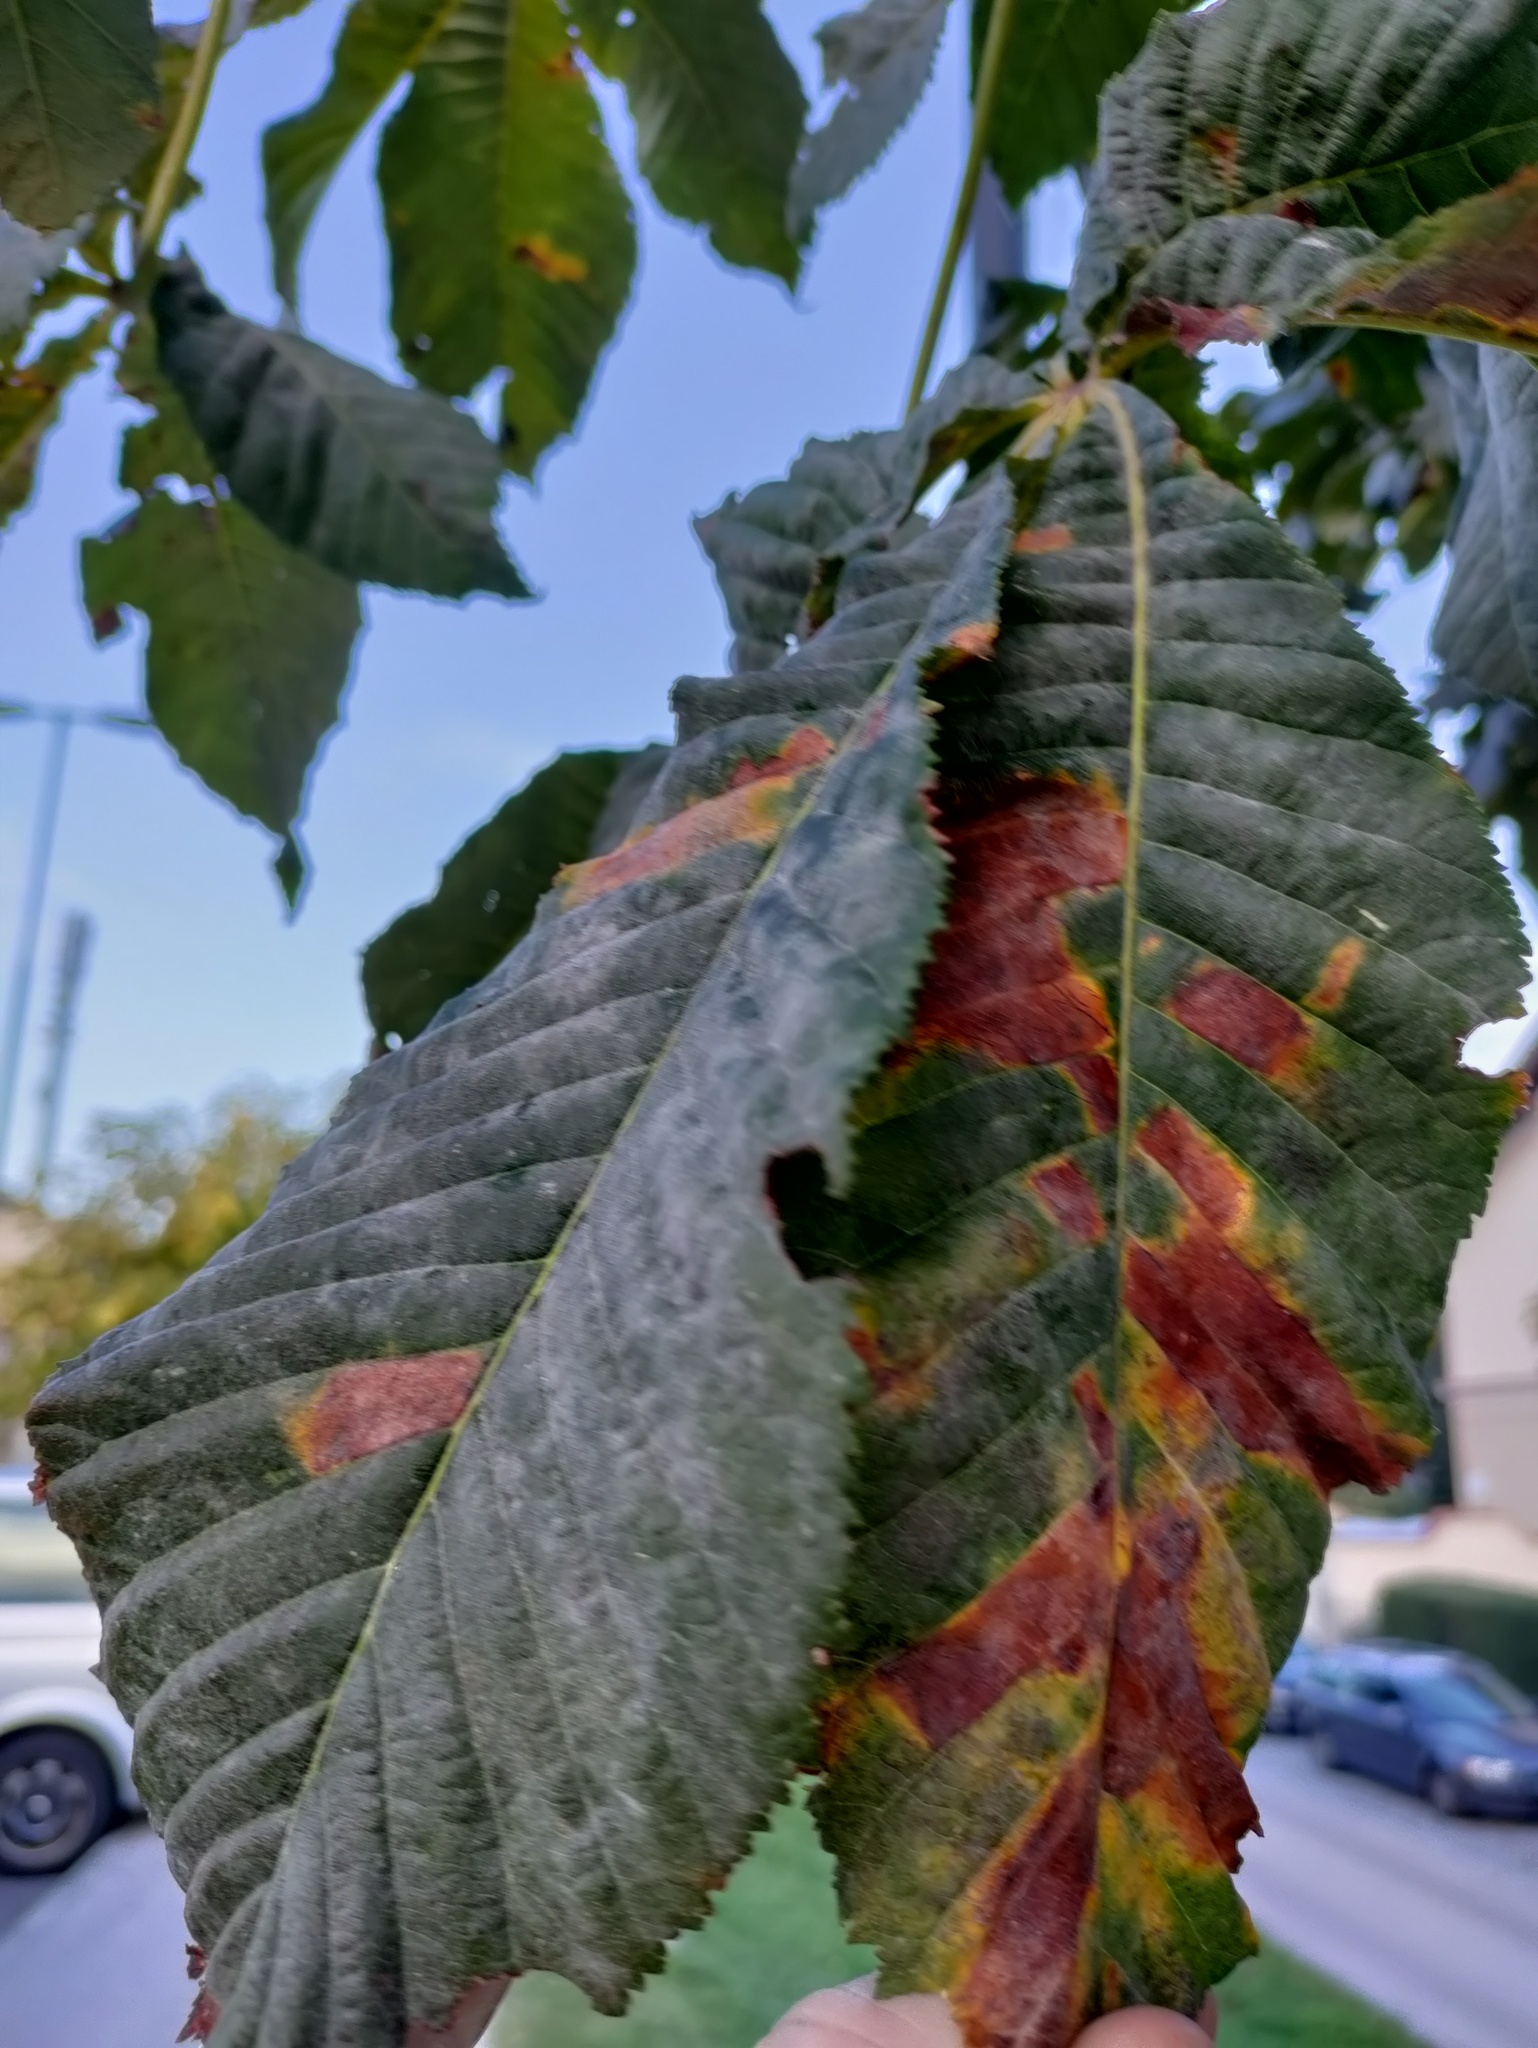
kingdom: Animalia
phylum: Arthropoda
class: Insecta
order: Lepidoptera
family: Gracillariidae
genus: Cameraria
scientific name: Cameraria ohridella
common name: Horse-chestnut leaf-miner
